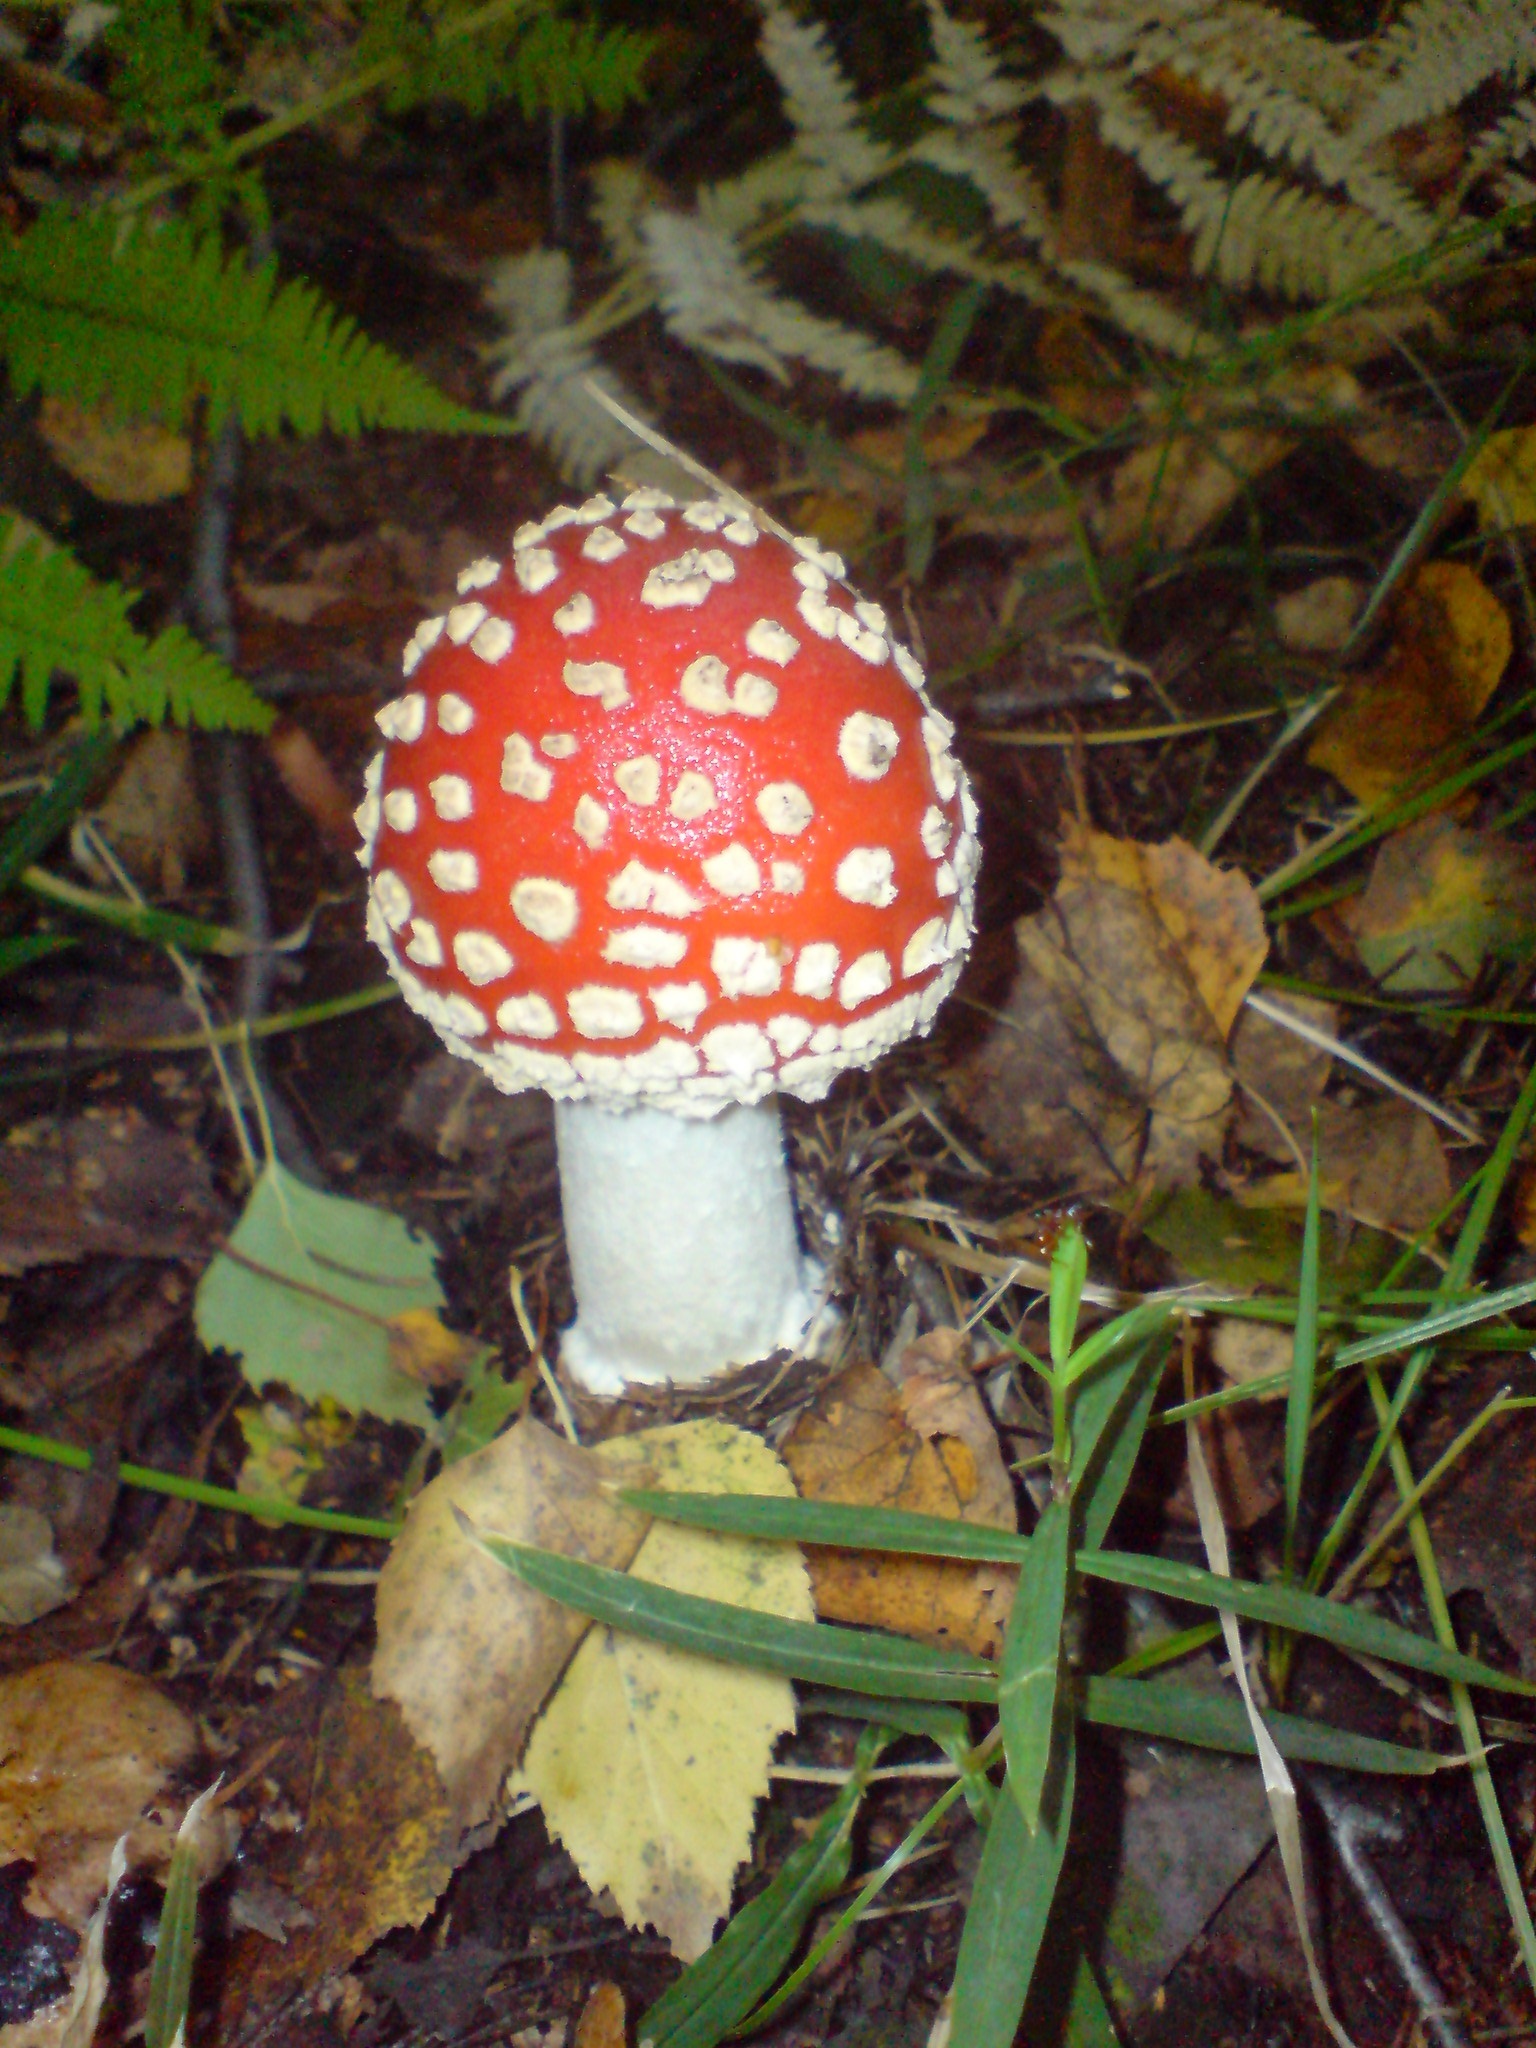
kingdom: Fungi
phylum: Basidiomycota
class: Agaricomycetes
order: Agaricales
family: Amanitaceae
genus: Amanita
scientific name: Amanita muscaria
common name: Fly agaric
